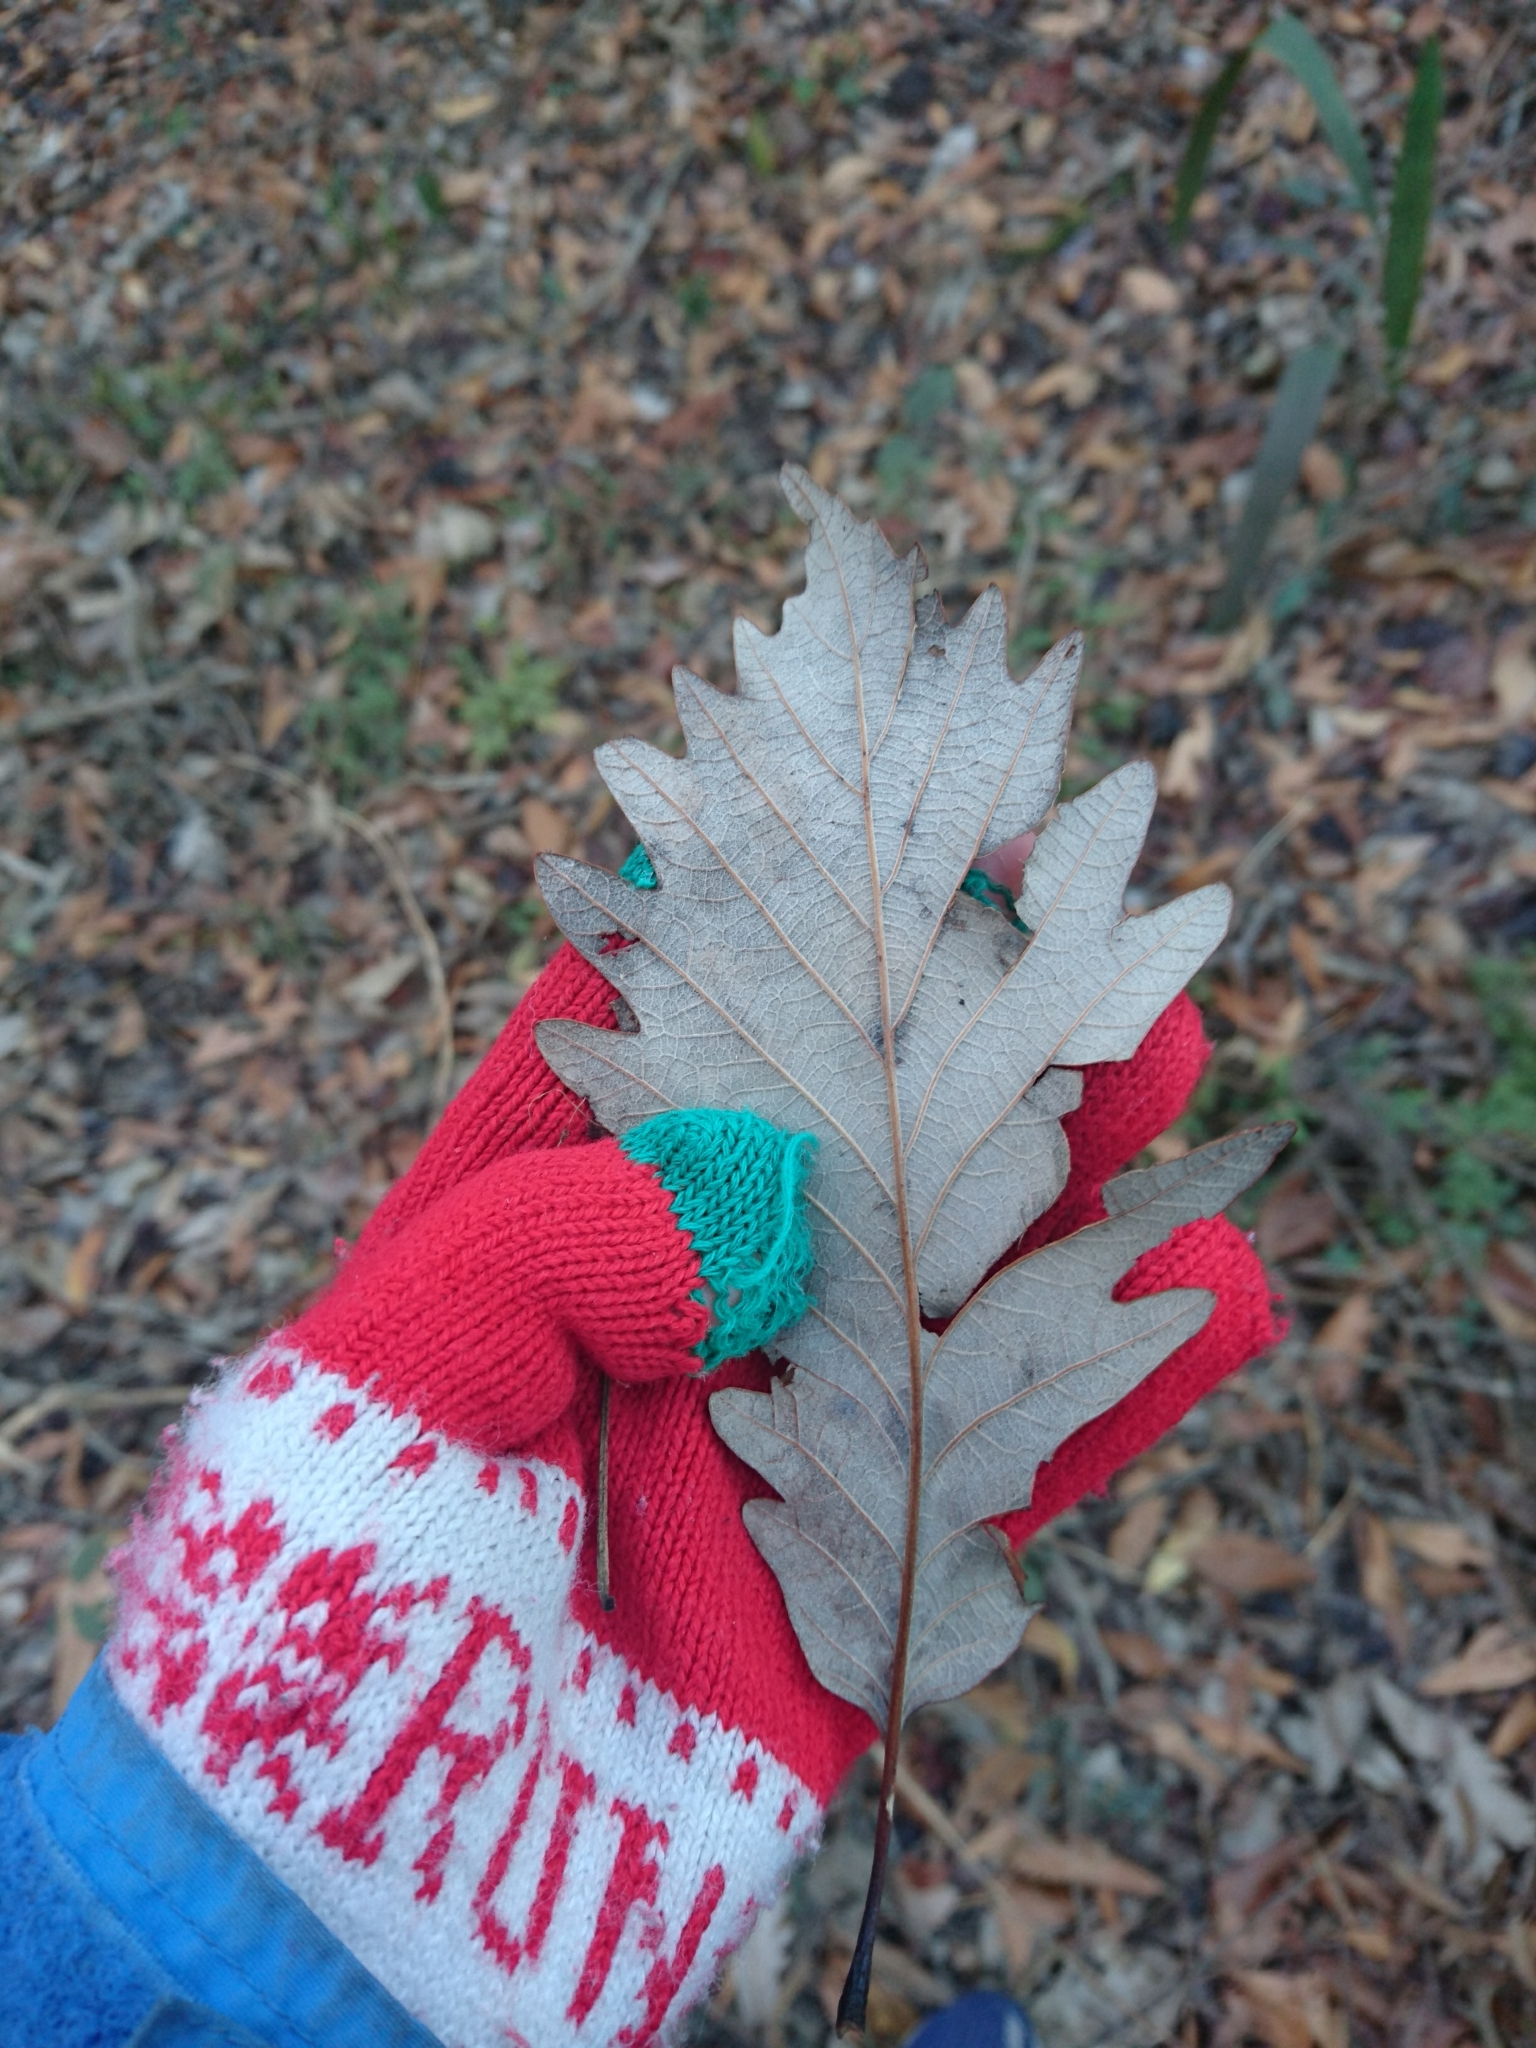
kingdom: Plantae
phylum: Tracheophyta
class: Magnoliopsida
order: Fagales
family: Fagaceae
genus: Quercus
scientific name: Quercus michauxii
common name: Swamp chestnut oak
